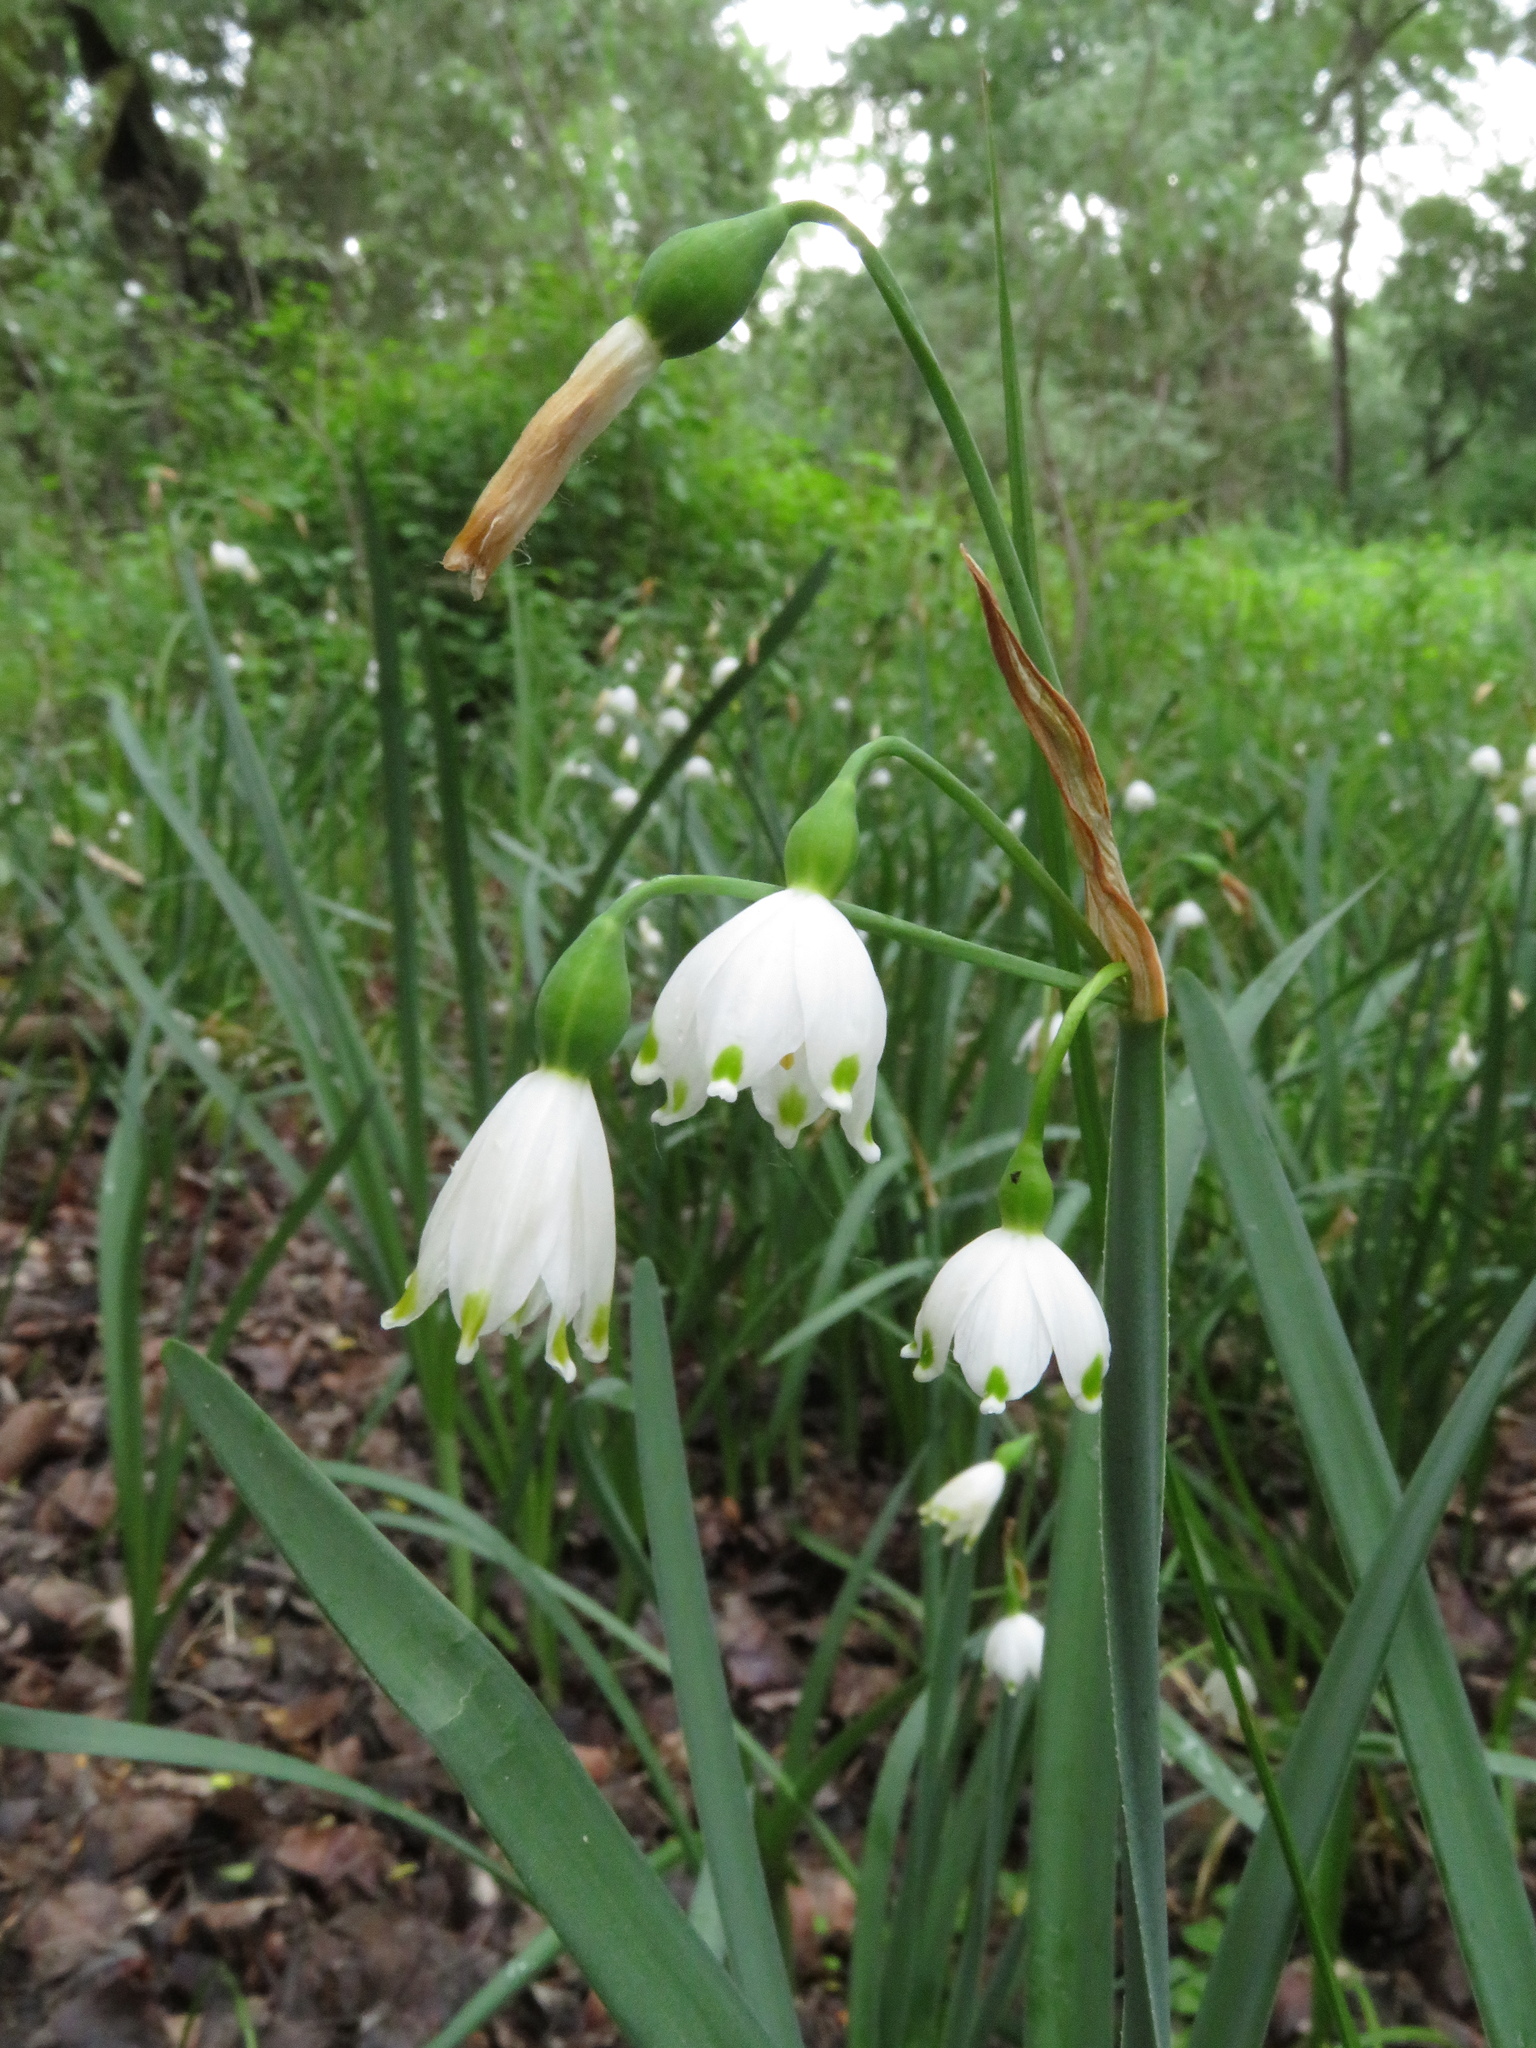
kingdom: Plantae
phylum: Tracheophyta
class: Liliopsida
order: Asparagales
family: Amaryllidaceae
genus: Leucojum
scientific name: Leucojum aestivum
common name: Summer snowflake
